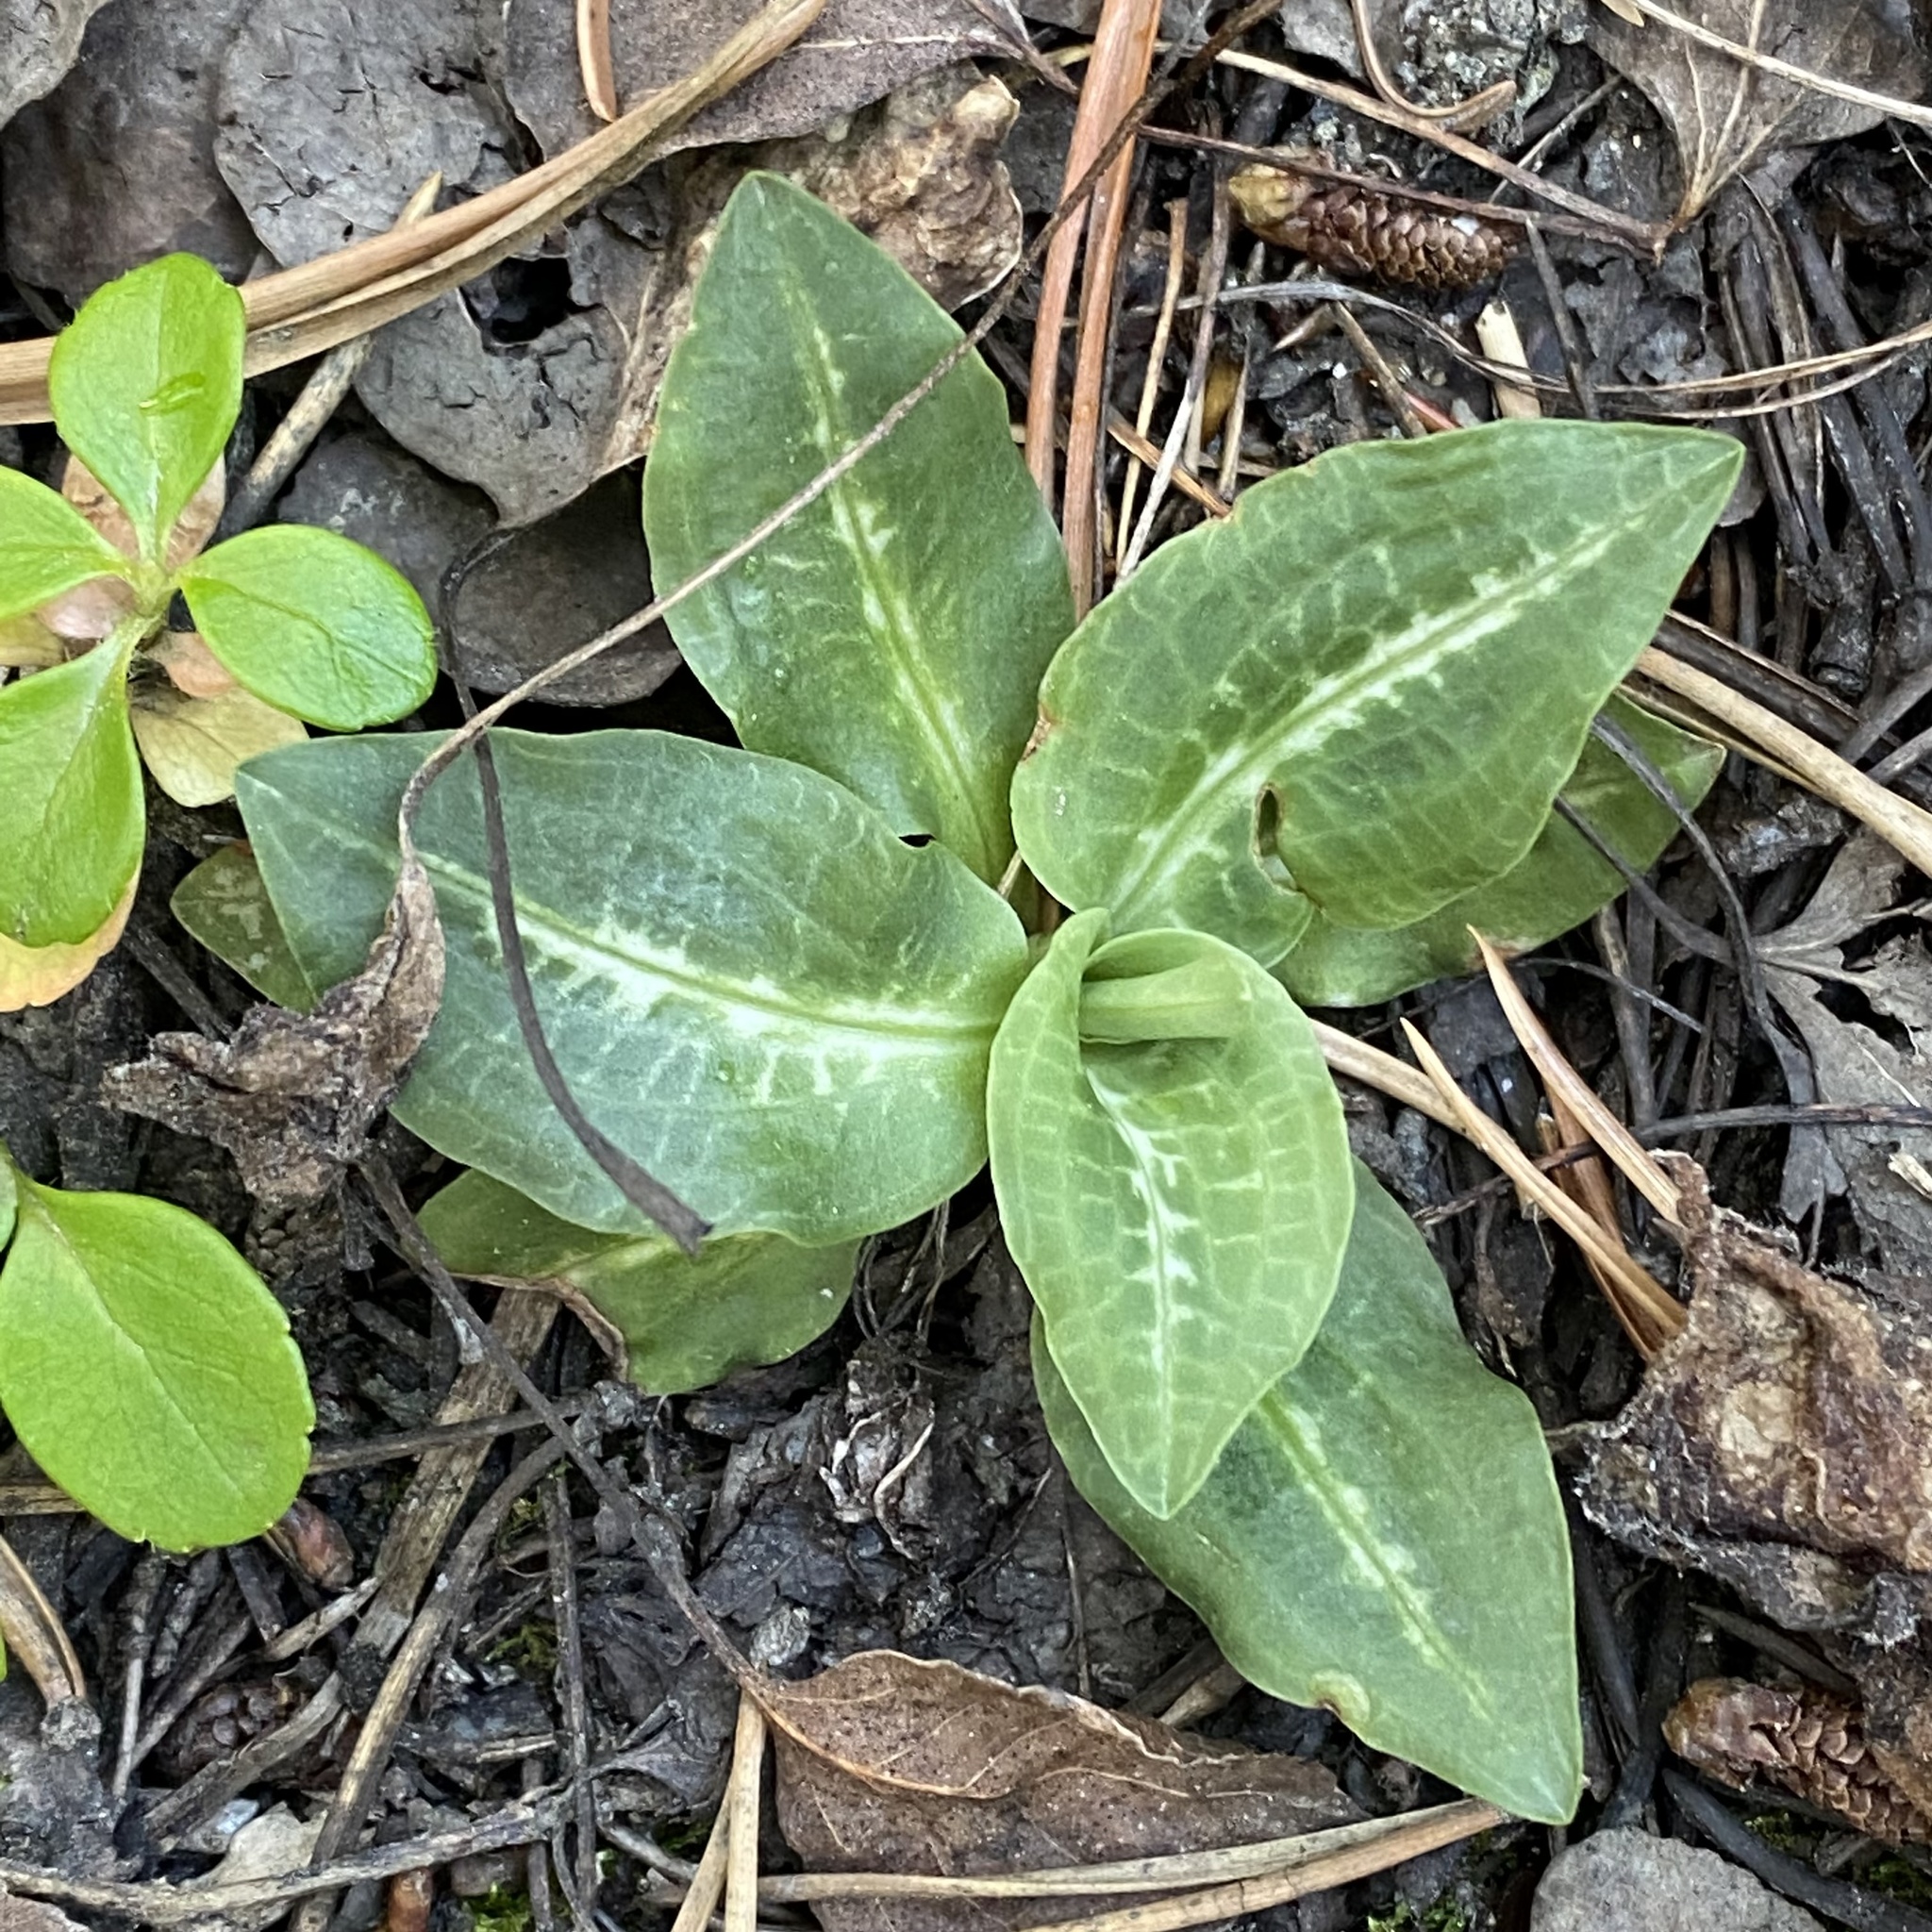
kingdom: Plantae
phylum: Tracheophyta
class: Liliopsida
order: Asparagales
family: Orchidaceae
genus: Goodyera
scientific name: Goodyera oblongifolia
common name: Giant rattlesnake-plantain
